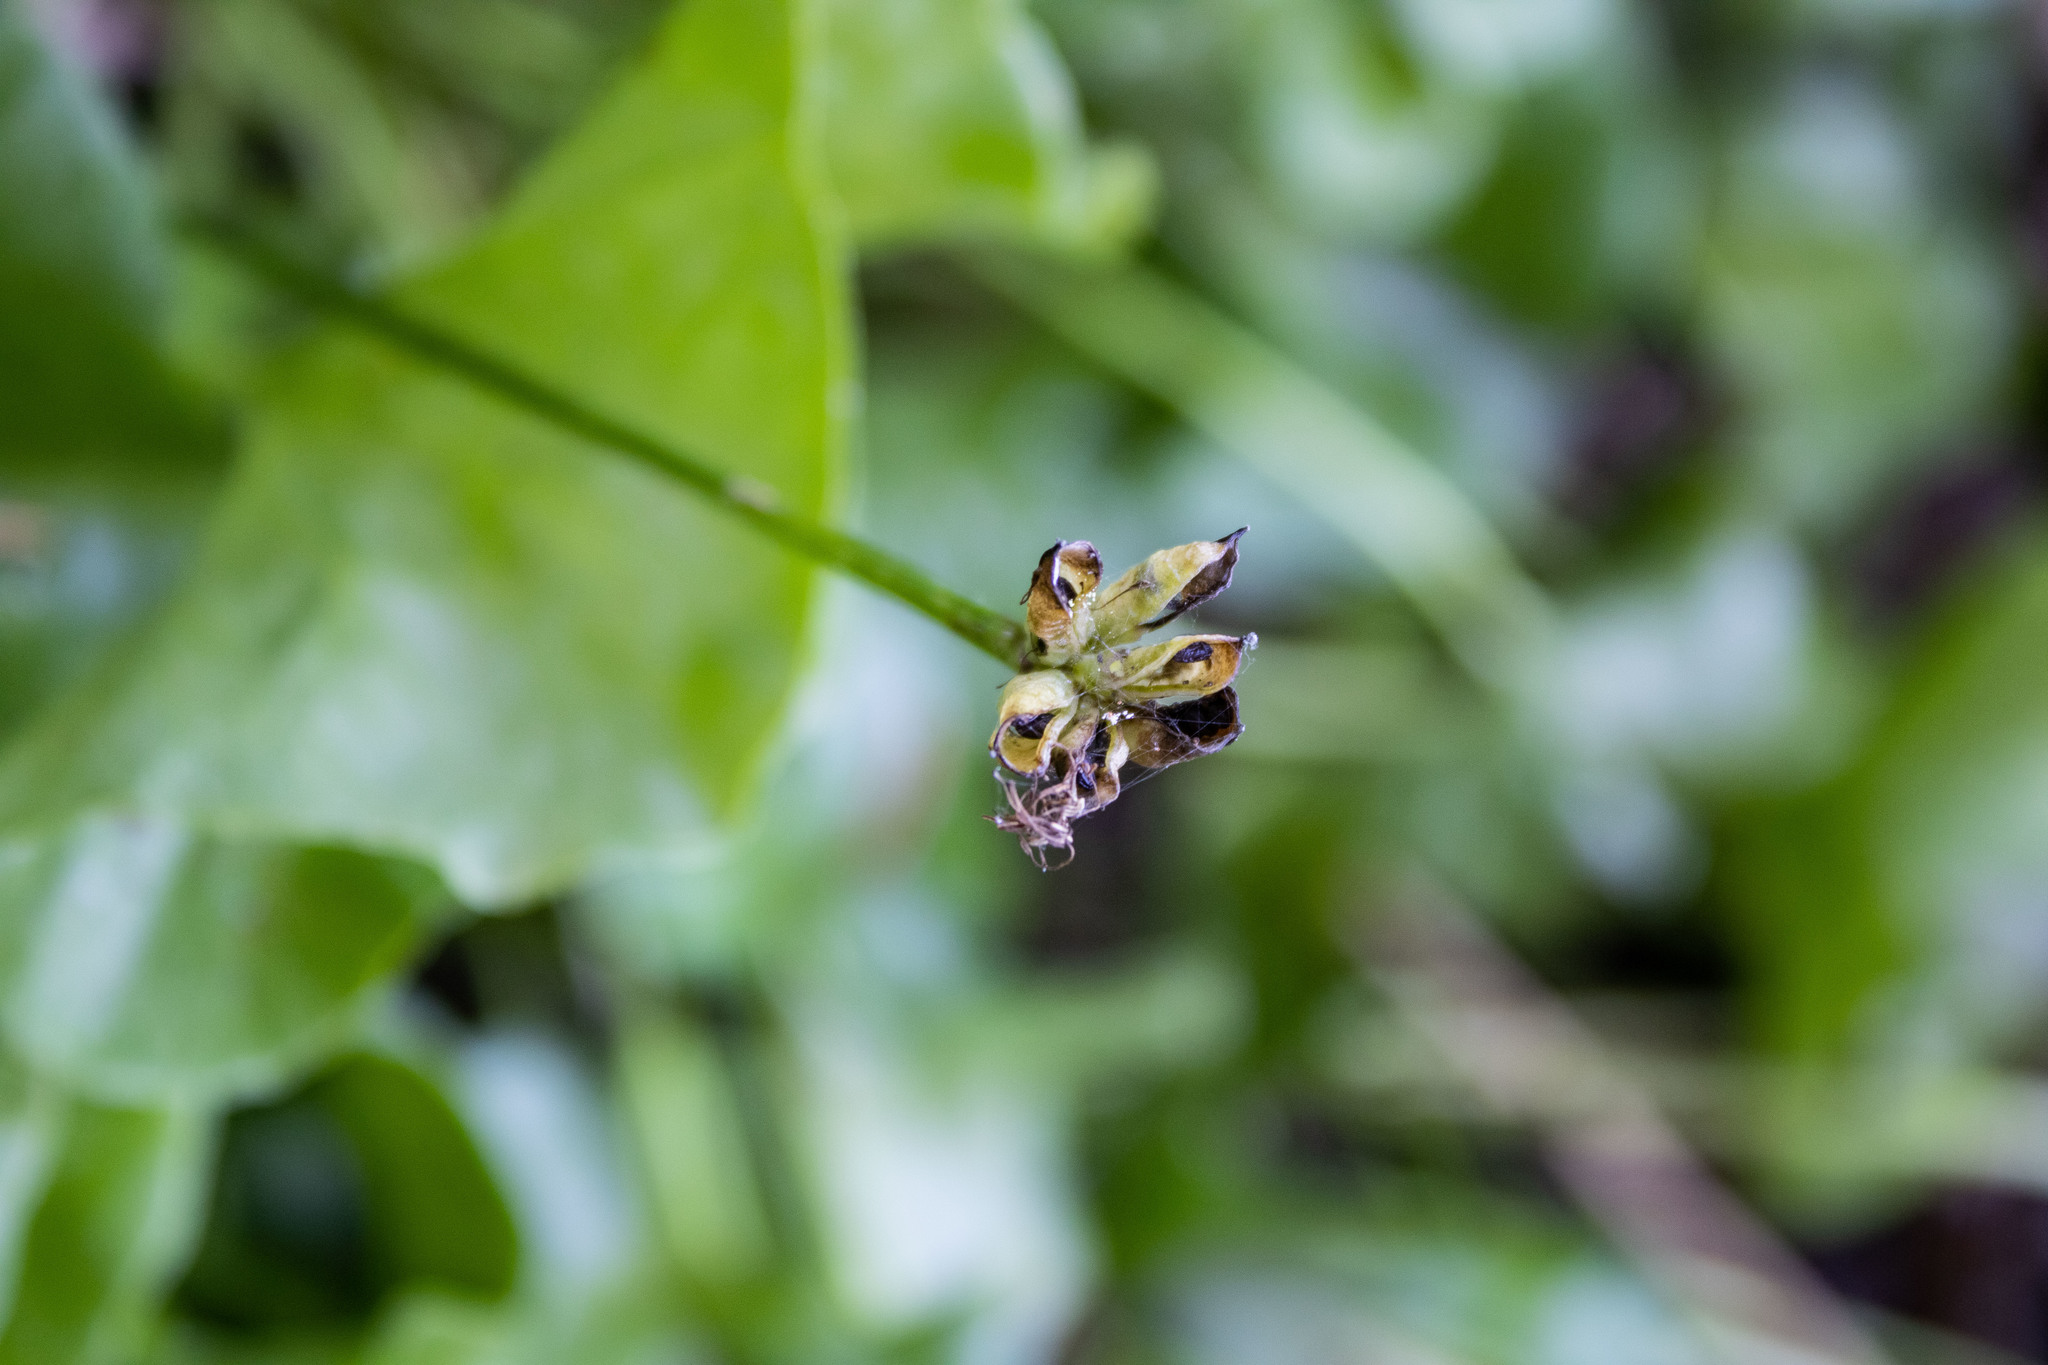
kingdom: Plantae
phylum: Tracheophyta
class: Magnoliopsida
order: Ranunculales
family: Ranunculaceae
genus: Caltha
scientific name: Caltha leptosepala
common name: Elkslip
